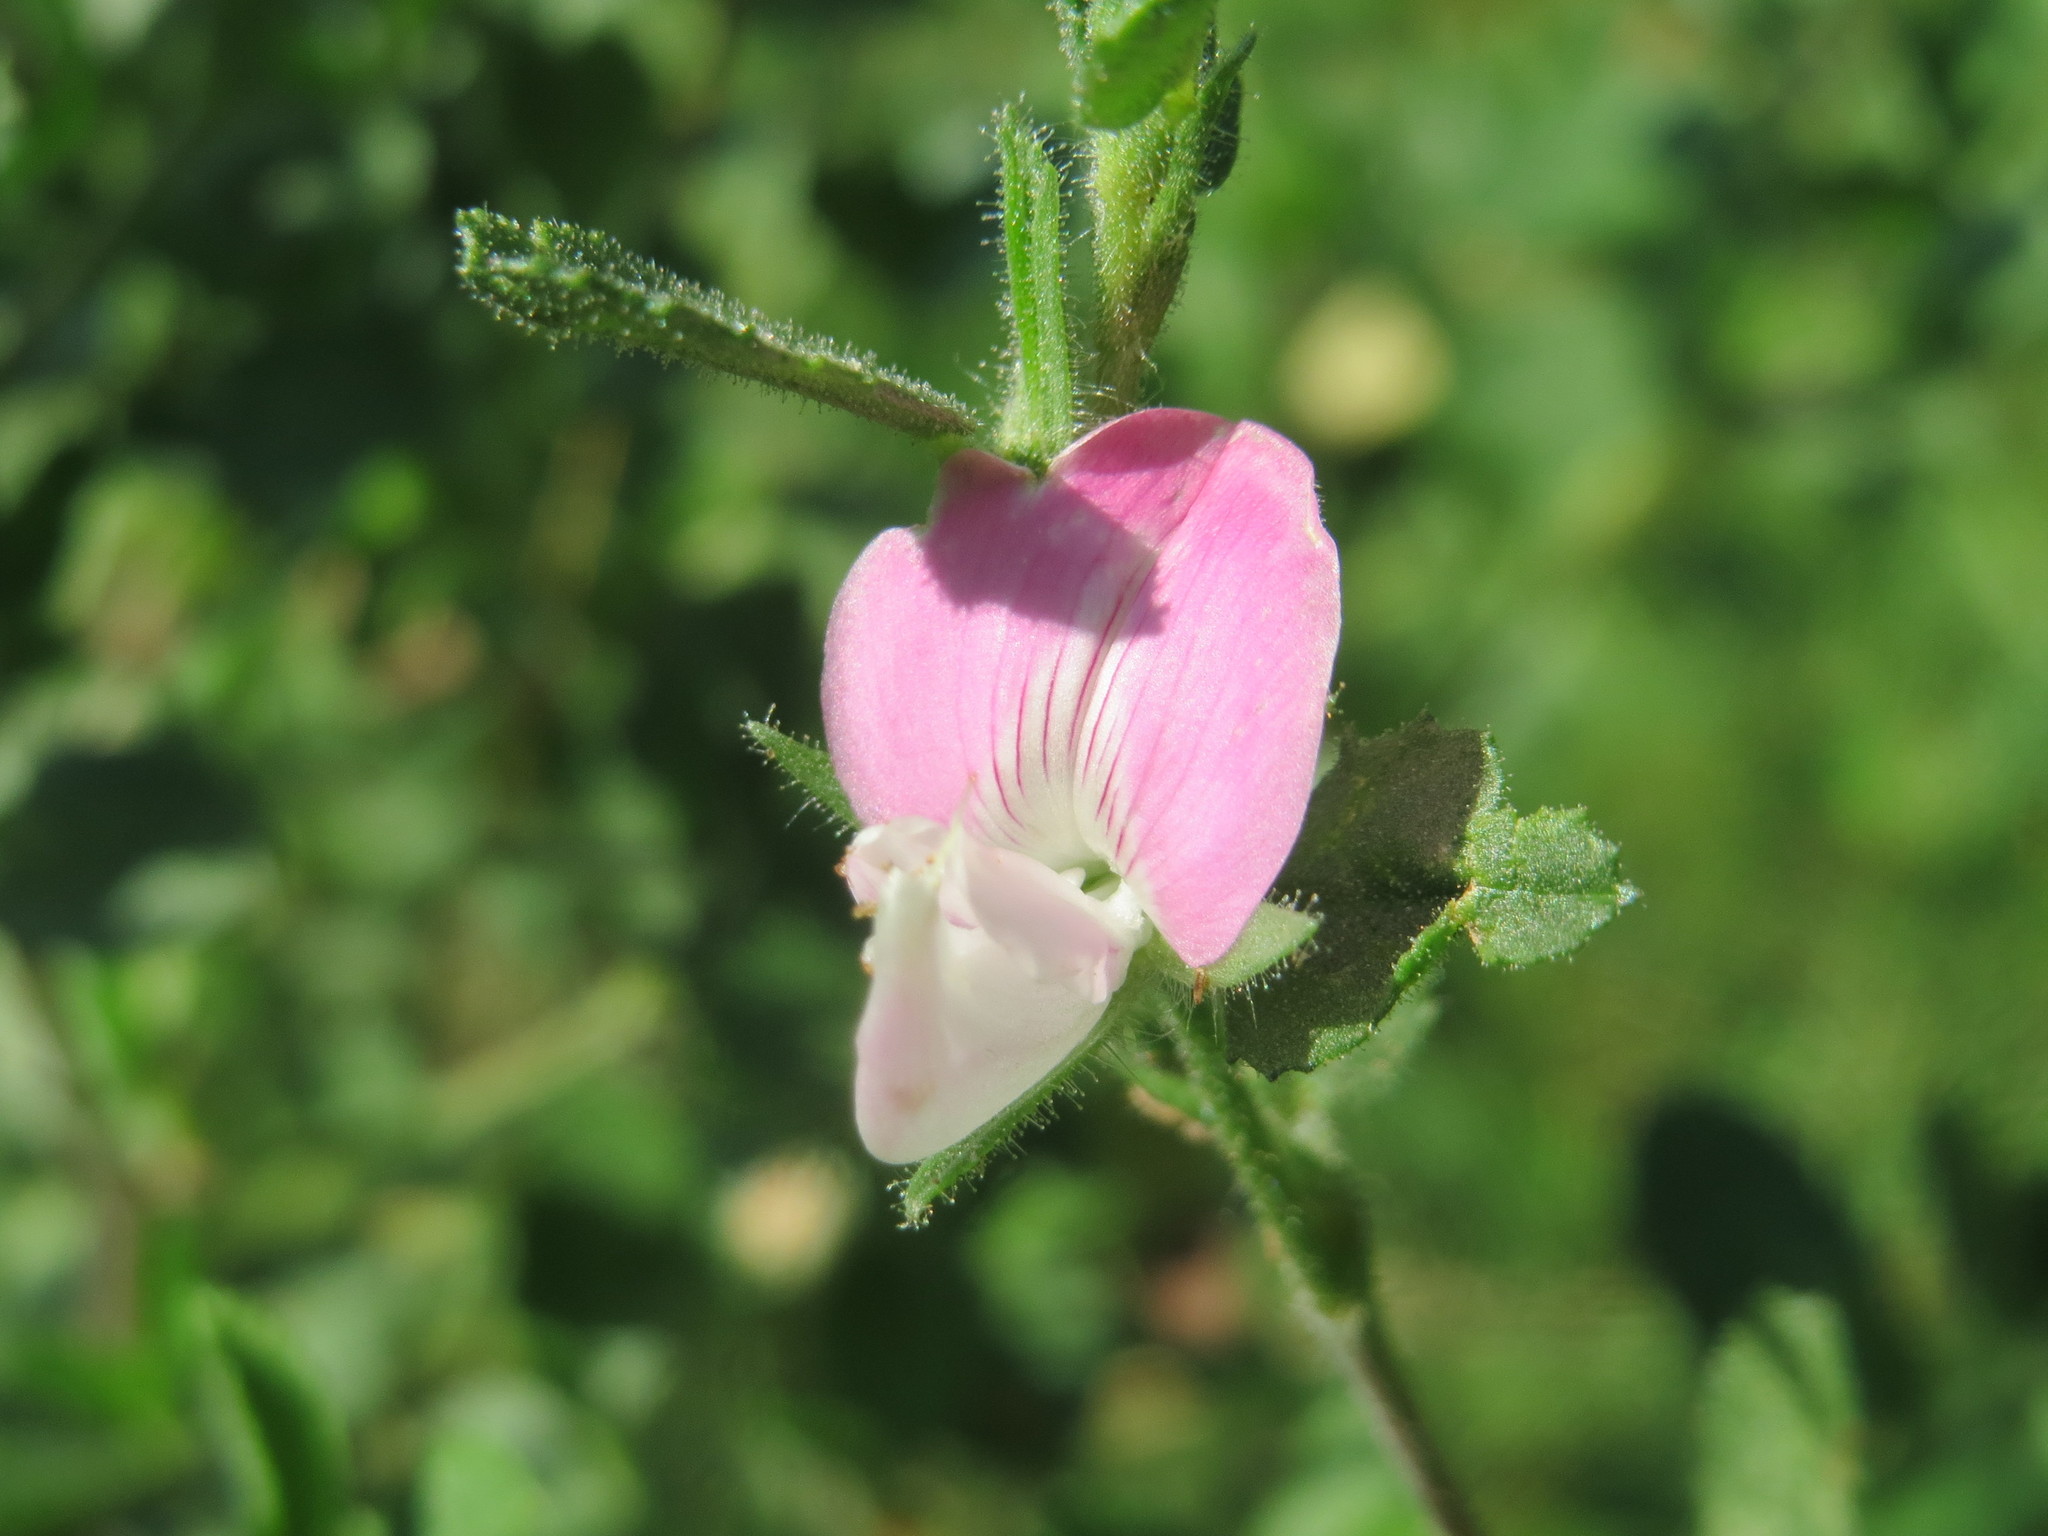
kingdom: Plantae
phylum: Tracheophyta
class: Magnoliopsida
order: Fabales
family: Fabaceae
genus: Ononis
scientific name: Ononis spinosa
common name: Spiny restharrow
